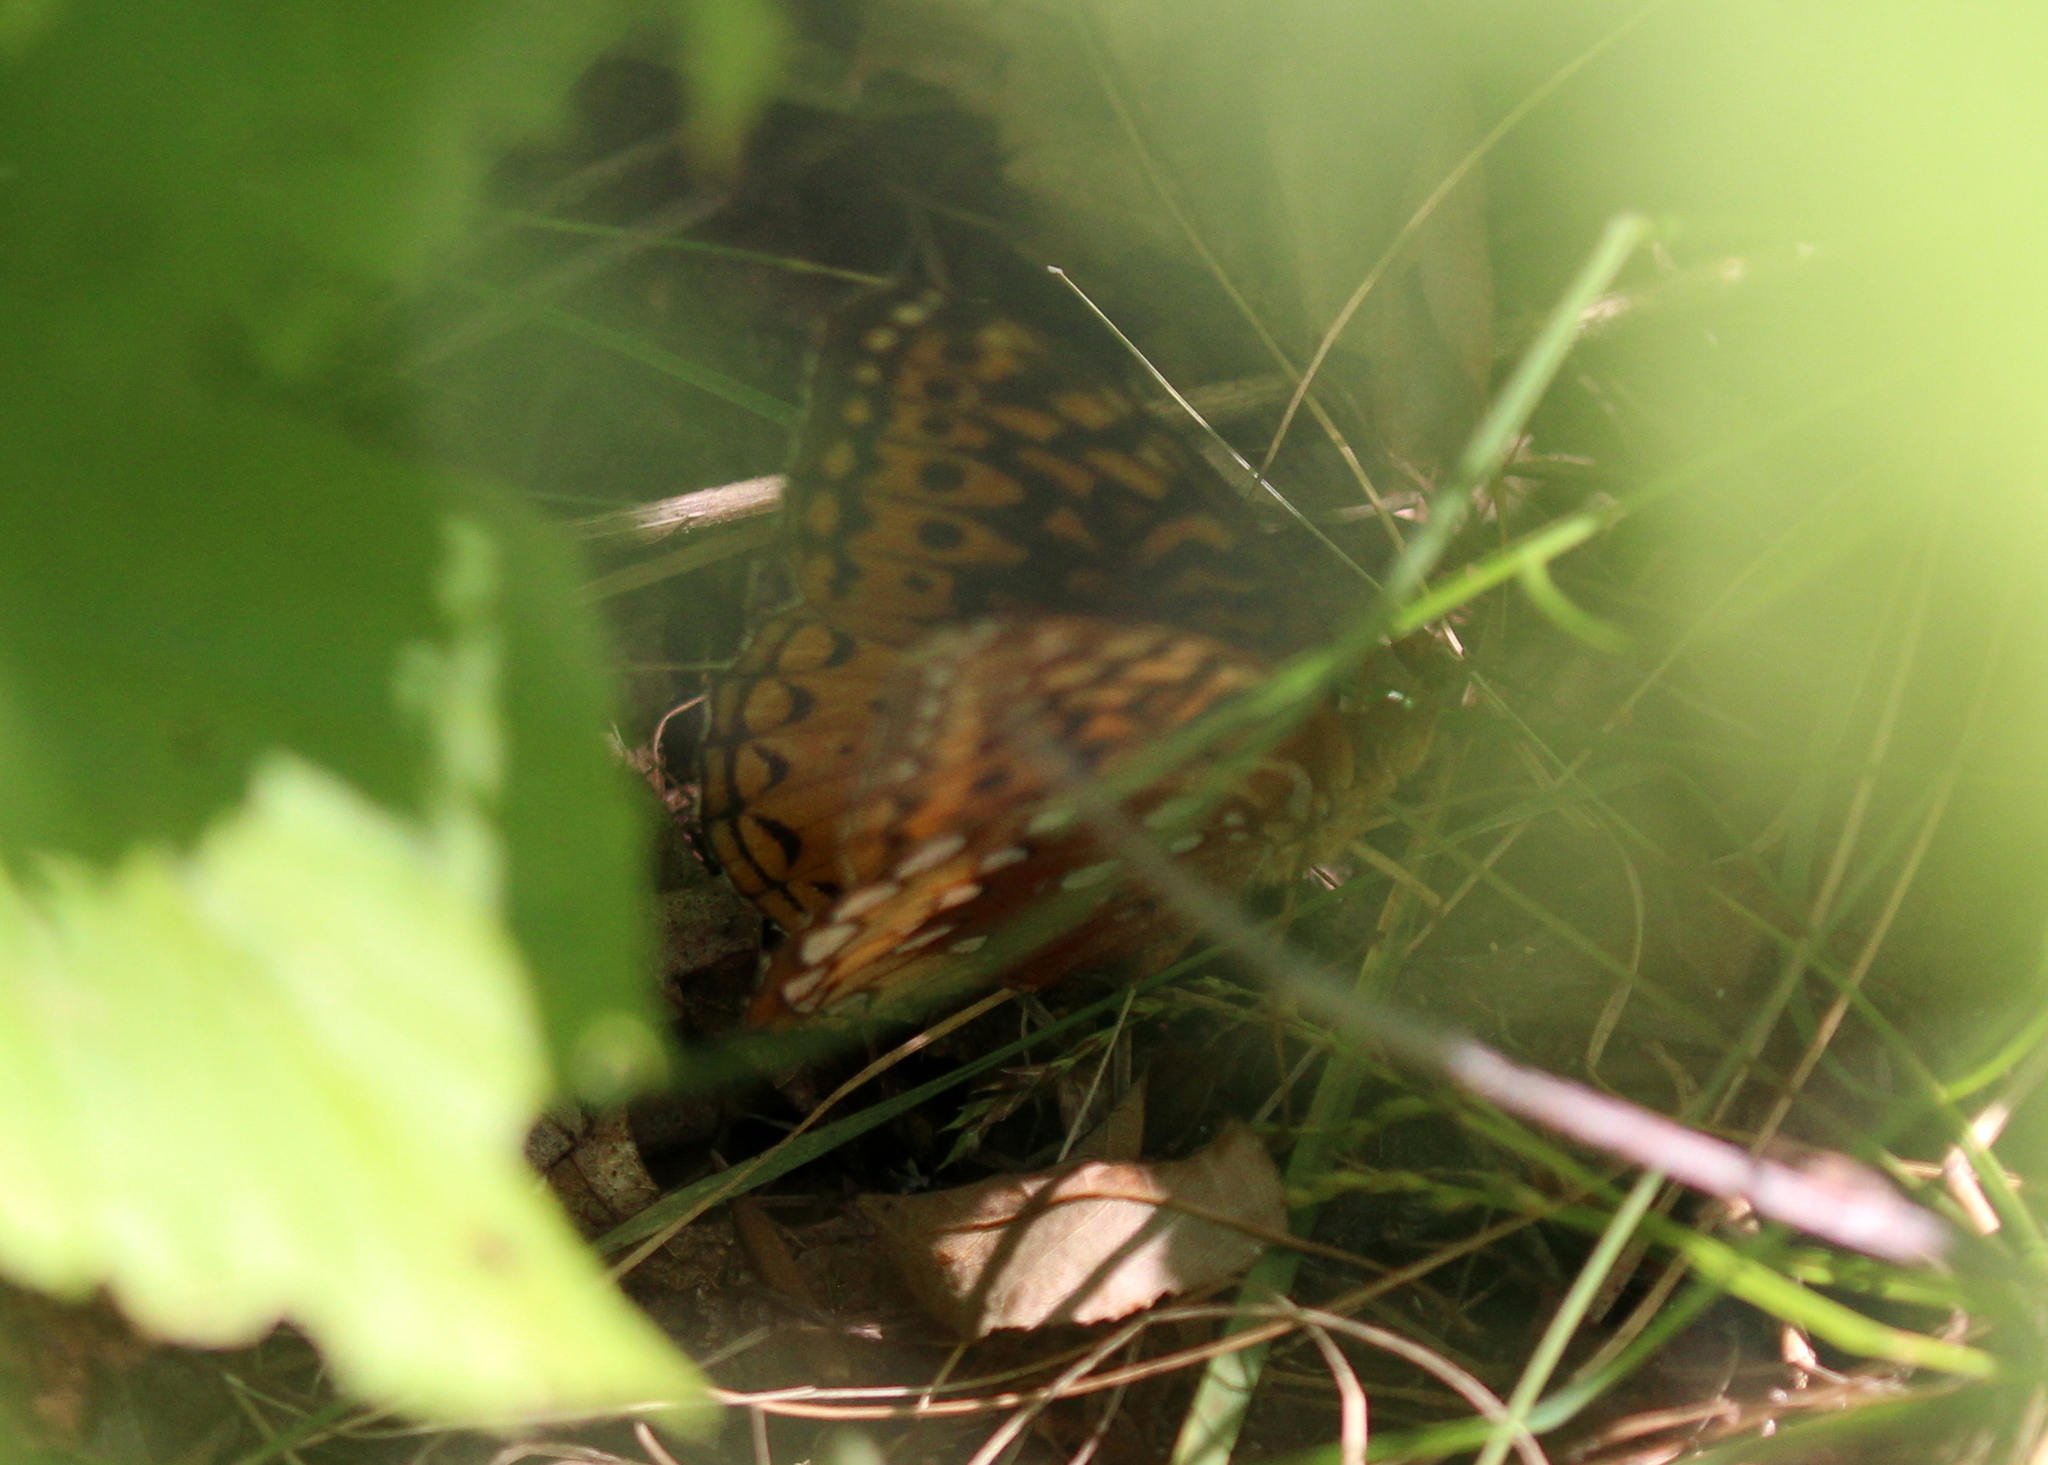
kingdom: Animalia
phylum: Arthropoda
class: Insecta
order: Lepidoptera
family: Nymphalidae
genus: Speyeria
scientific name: Speyeria cybele
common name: Great spangled fritillary
